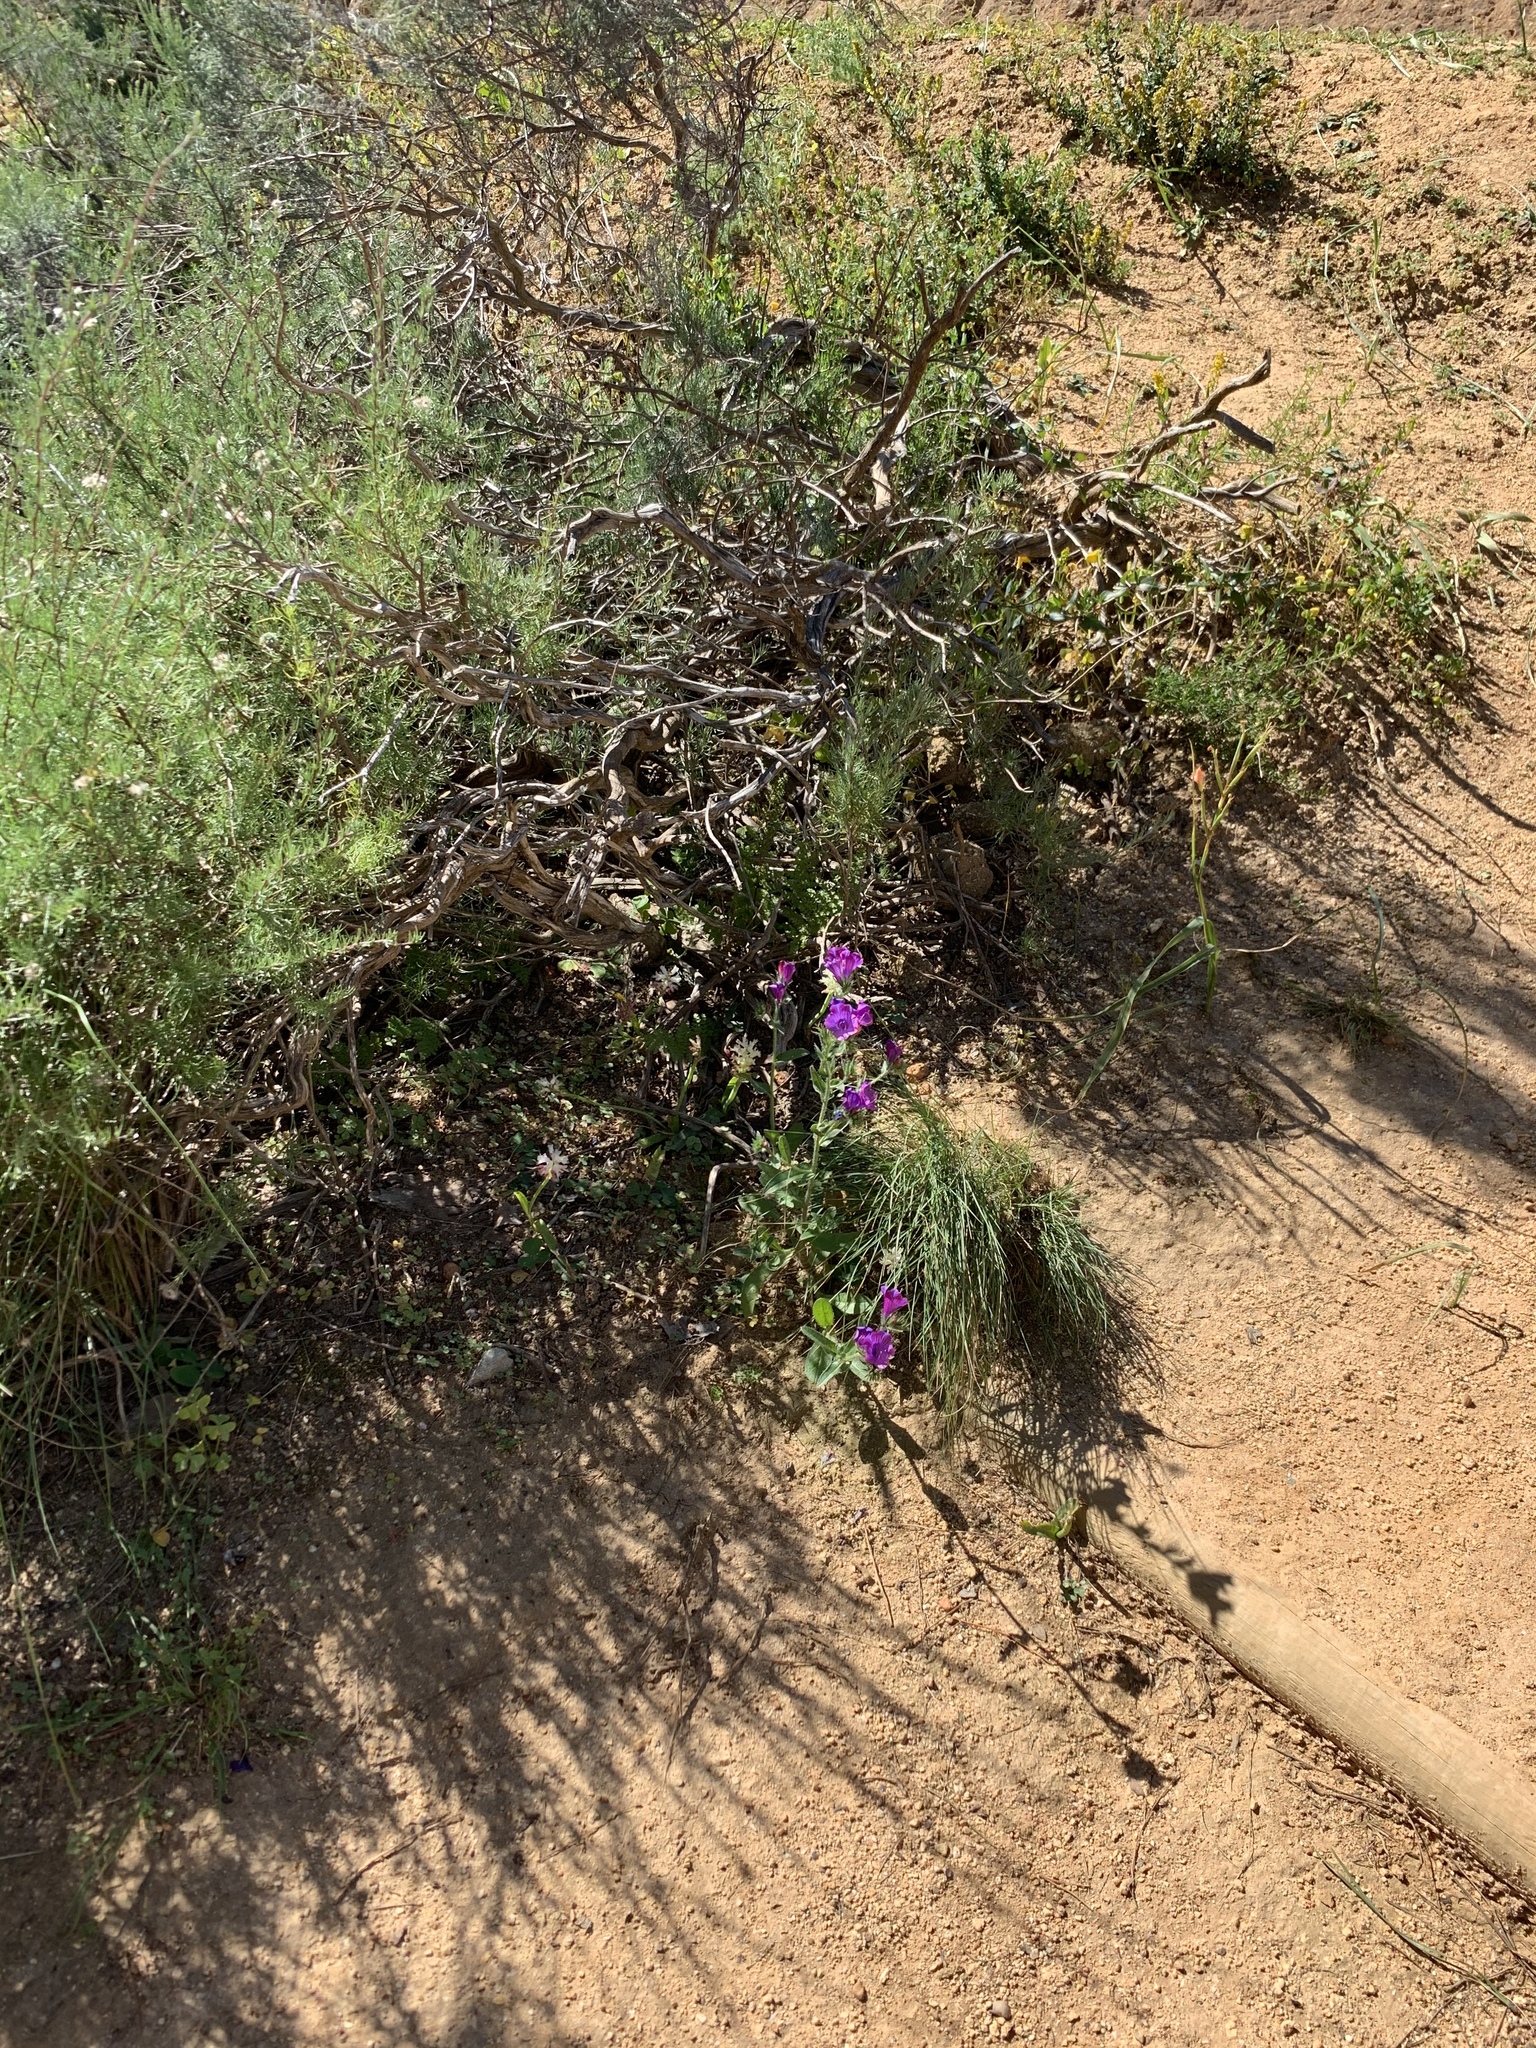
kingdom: Plantae
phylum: Tracheophyta
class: Magnoliopsida
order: Boraginales
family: Boraginaceae
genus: Echium
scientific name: Echium plantagineum
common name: Purple viper's-bugloss
